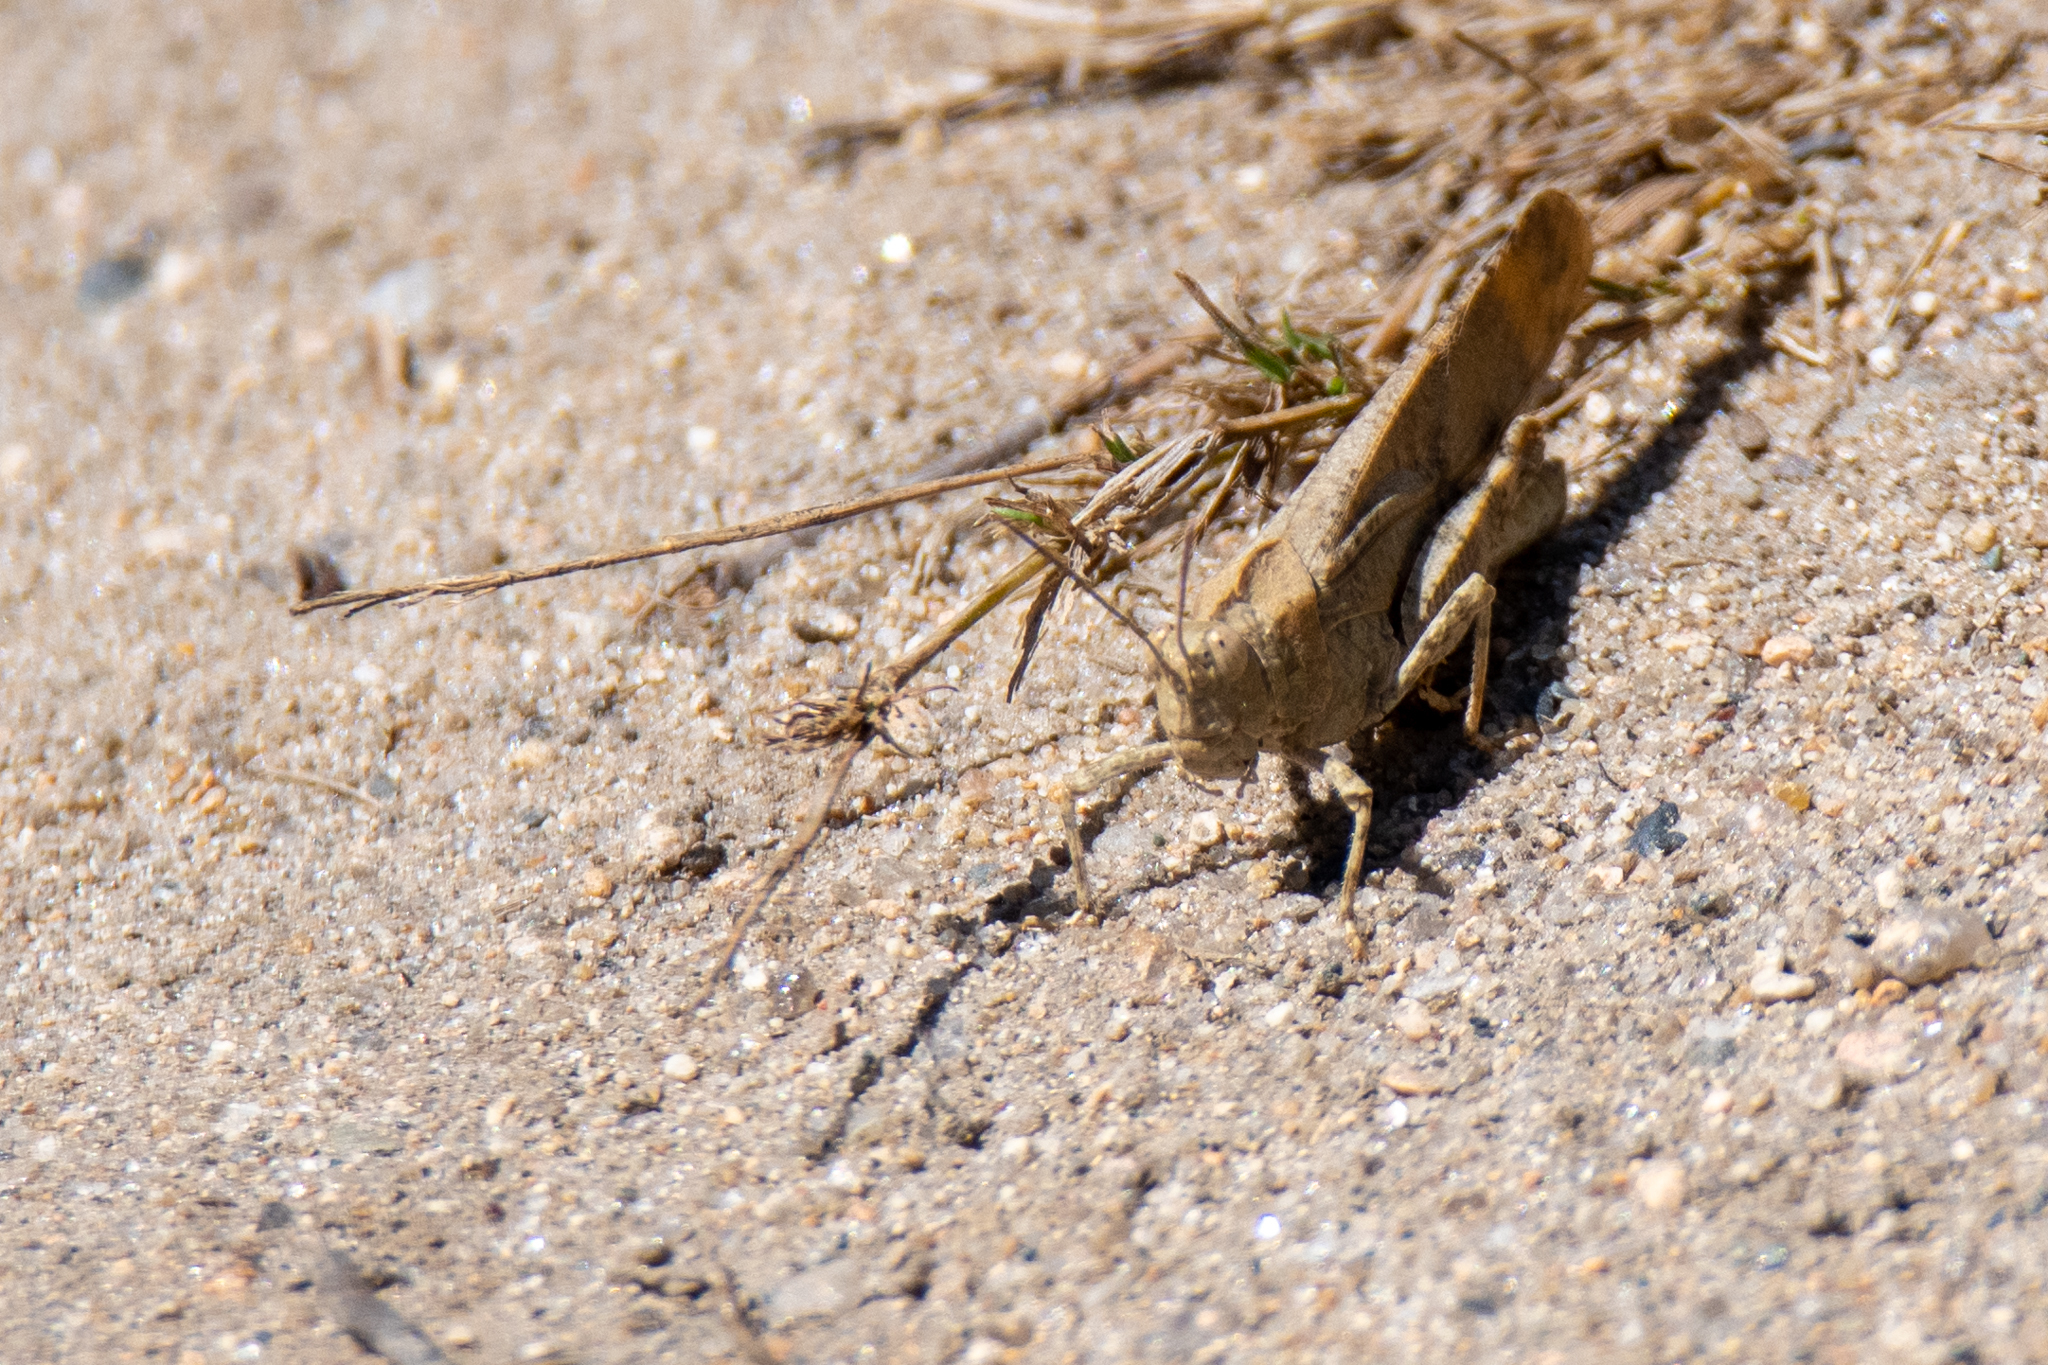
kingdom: Animalia
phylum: Arthropoda
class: Insecta
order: Orthoptera
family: Acrididae
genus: Dissosteira
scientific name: Dissosteira carolina
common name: Carolina grasshopper
